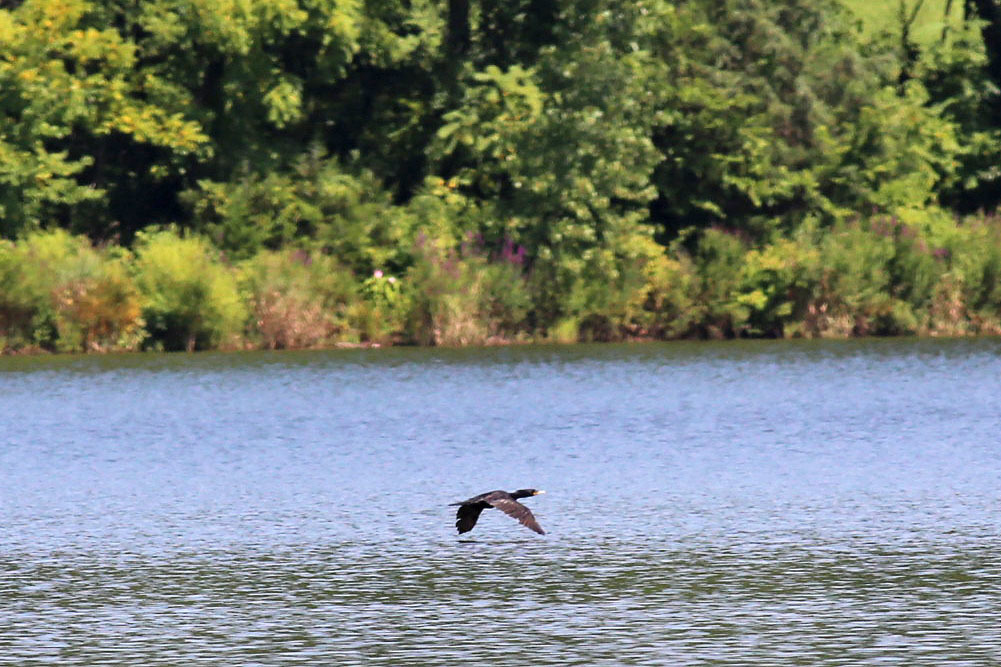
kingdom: Animalia
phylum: Chordata
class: Aves
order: Suliformes
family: Phalacrocoracidae
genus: Phalacrocorax
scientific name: Phalacrocorax auritus
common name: Double-crested cormorant
